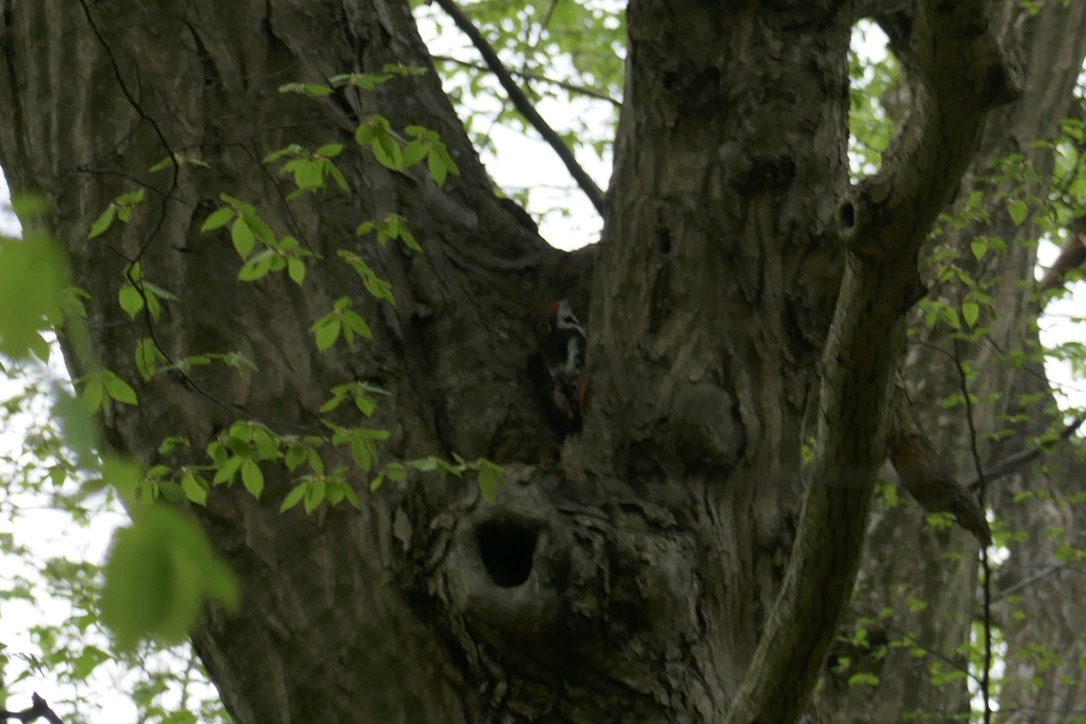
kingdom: Animalia
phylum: Chordata
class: Aves
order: Piciformes
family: Picidae
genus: Dendrocoptes
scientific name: Dendrocoptes medius
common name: Middle spotted woodpecker
